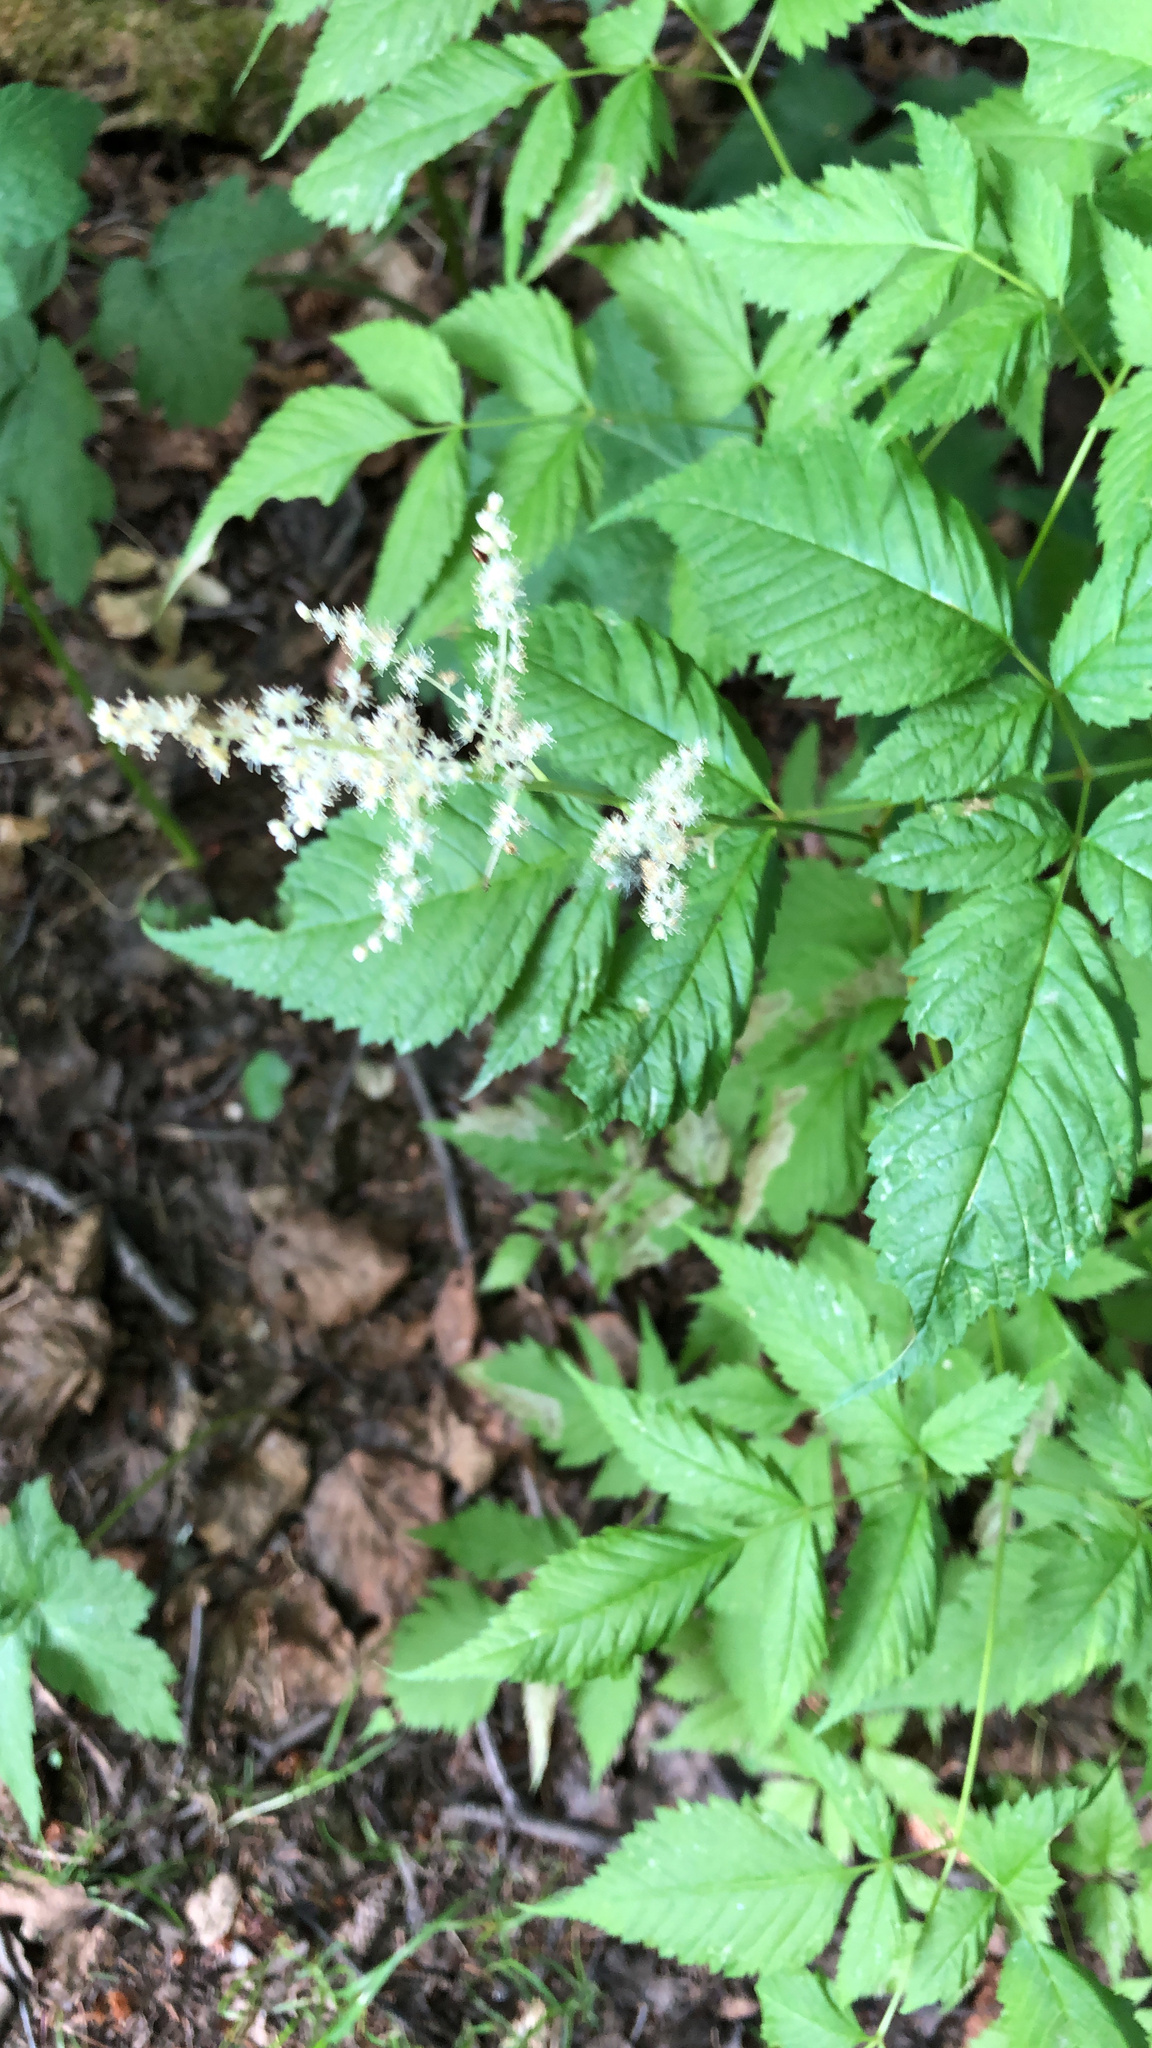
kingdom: Plantae
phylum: Tracheophyta
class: Magnoliopsida
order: Rosales
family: Rosaceae
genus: Aruncus
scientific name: Aruncus dioicus
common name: Buck's-beard
